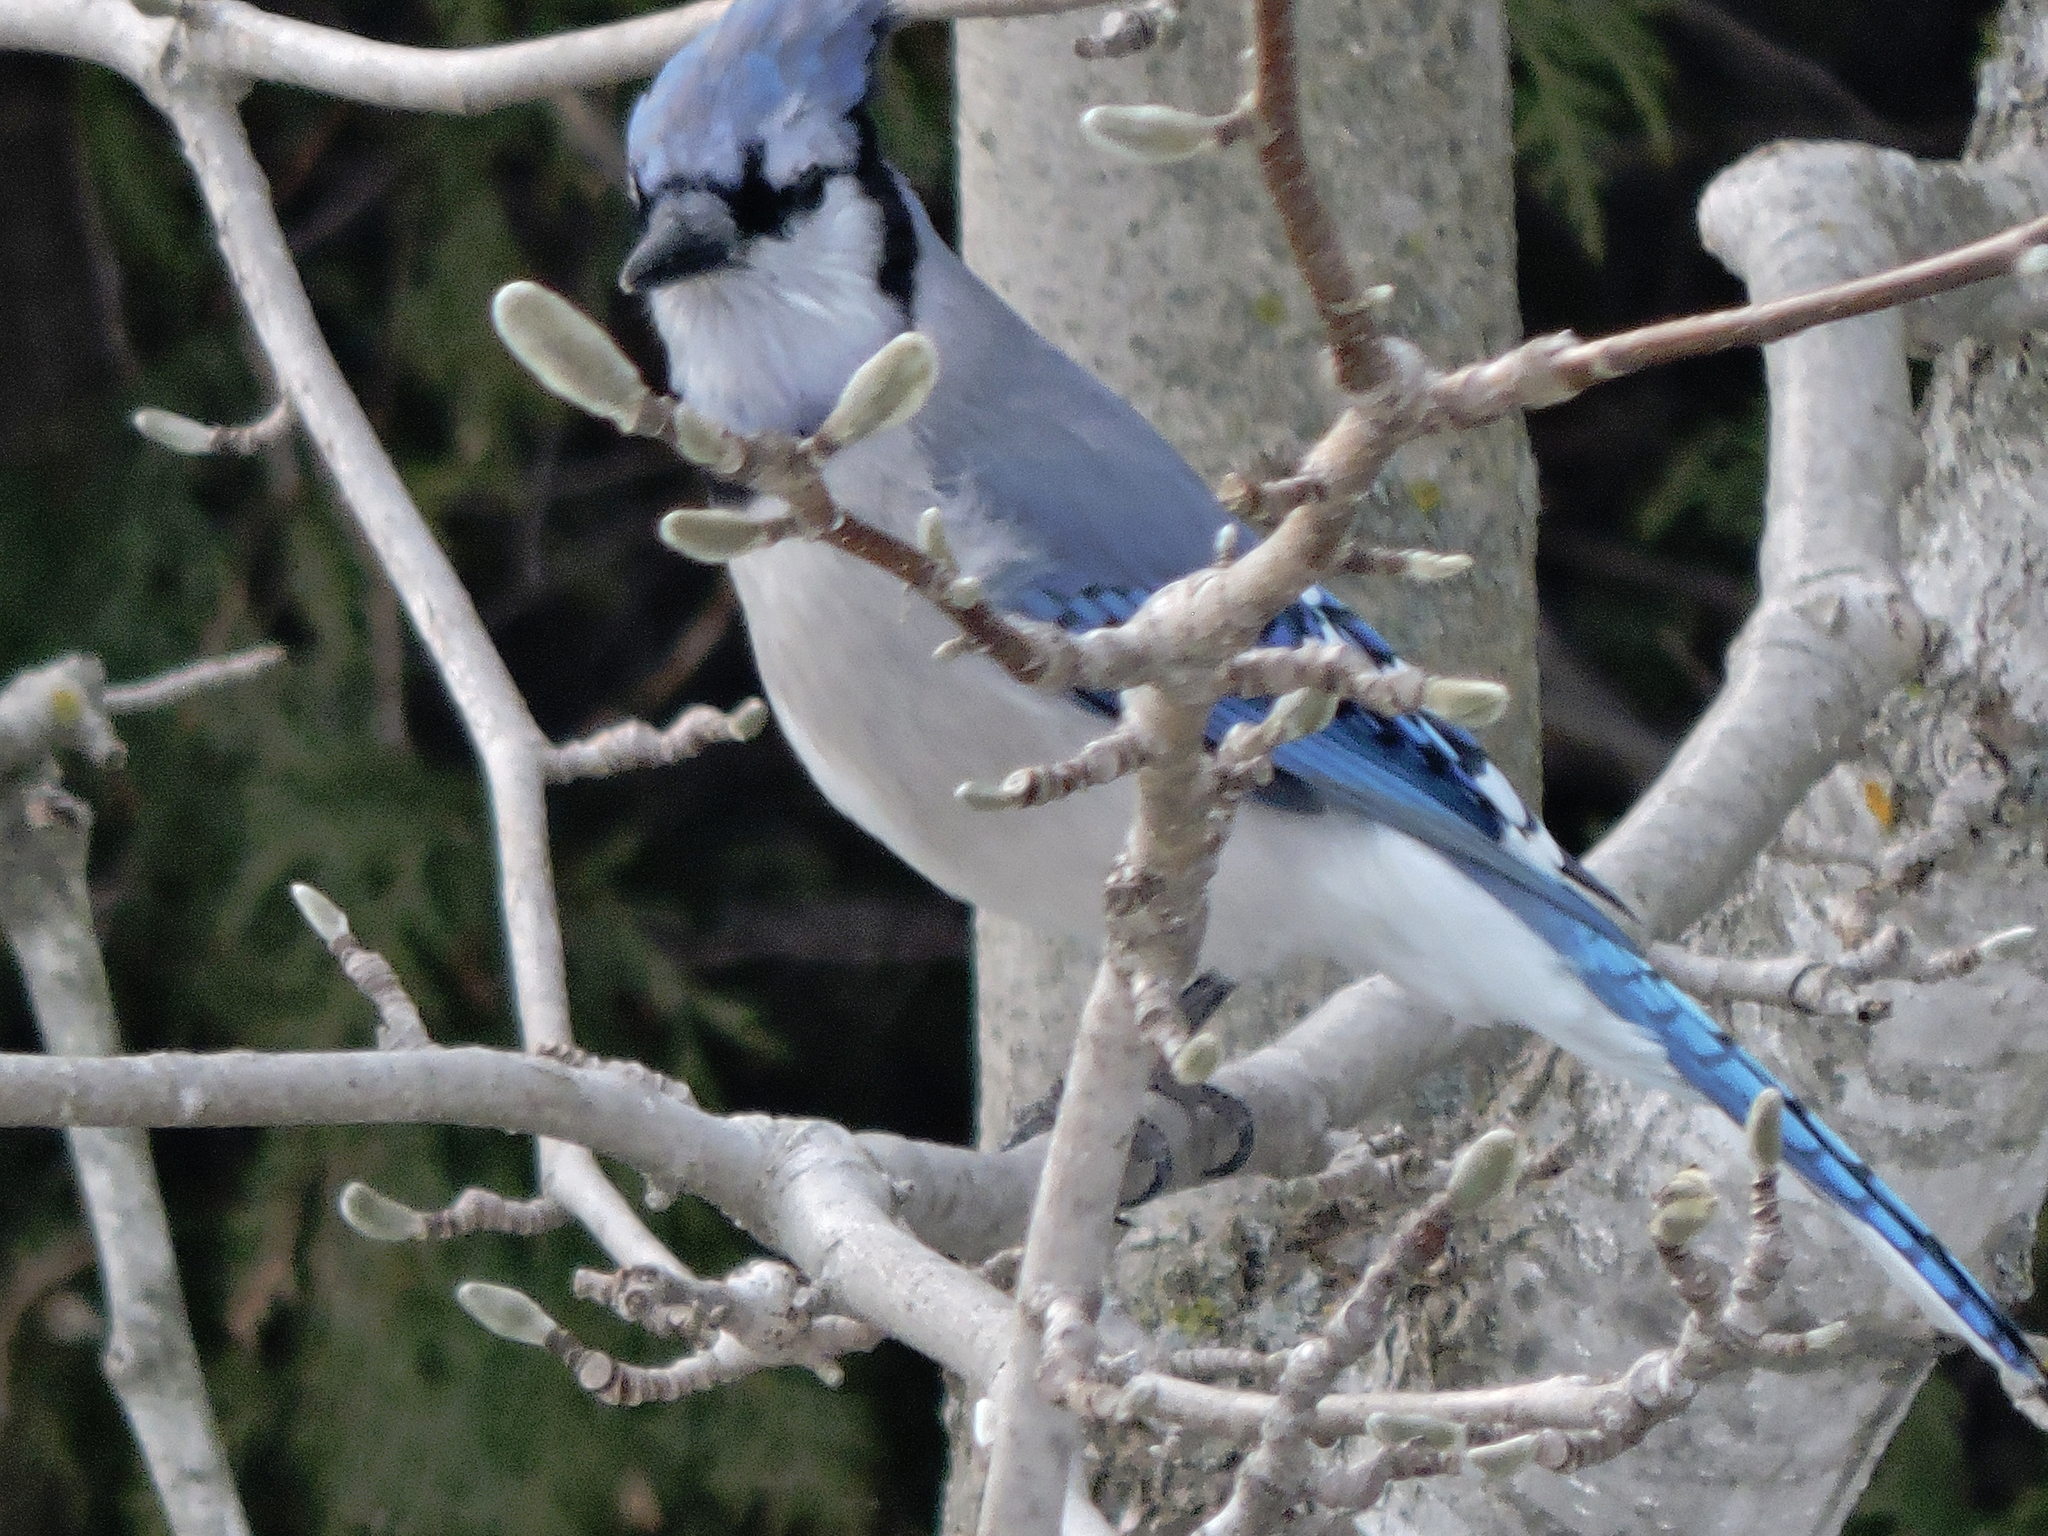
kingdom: Animalia
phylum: Chordata
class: Aves
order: Passeriformes
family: Corvidae
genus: Cyanocitta
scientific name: Cyanocitta cristata
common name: Blue jay
